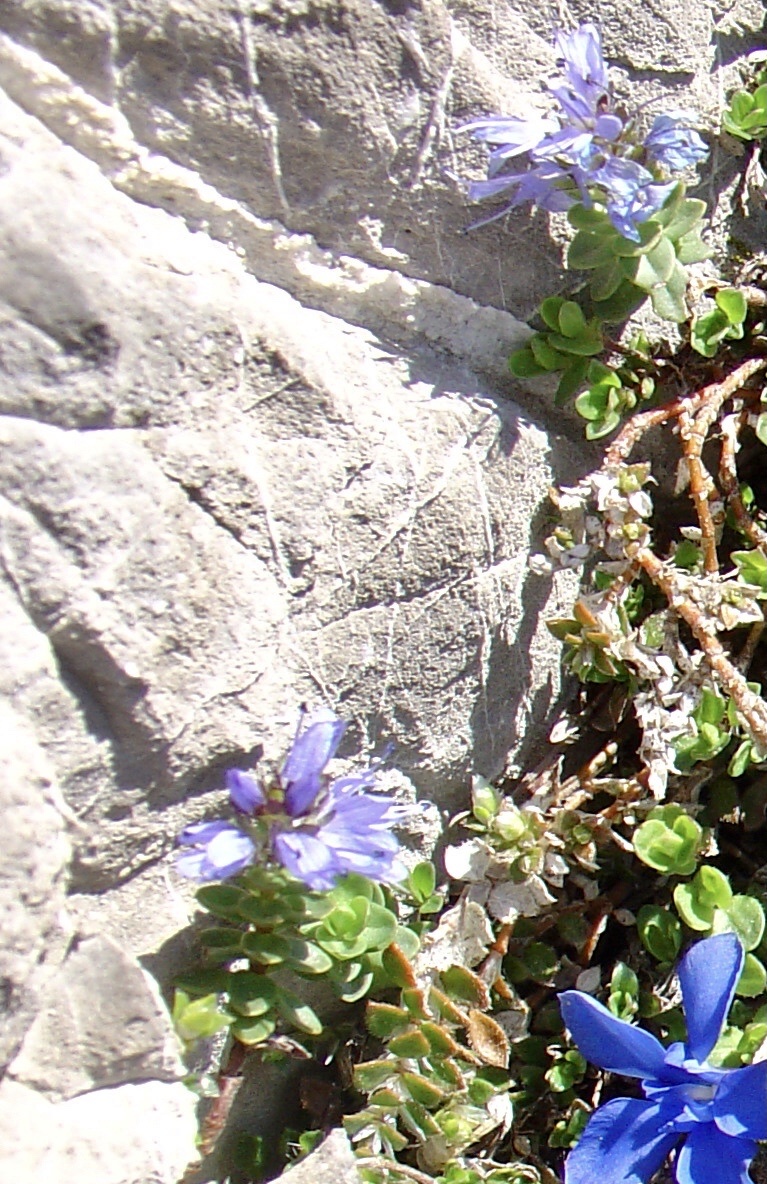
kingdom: Plantae
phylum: Tracheophyta
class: Magnoliopsida
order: Lamiales
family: Plantaginaceae
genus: Veronica
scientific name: Veronica nummularia
